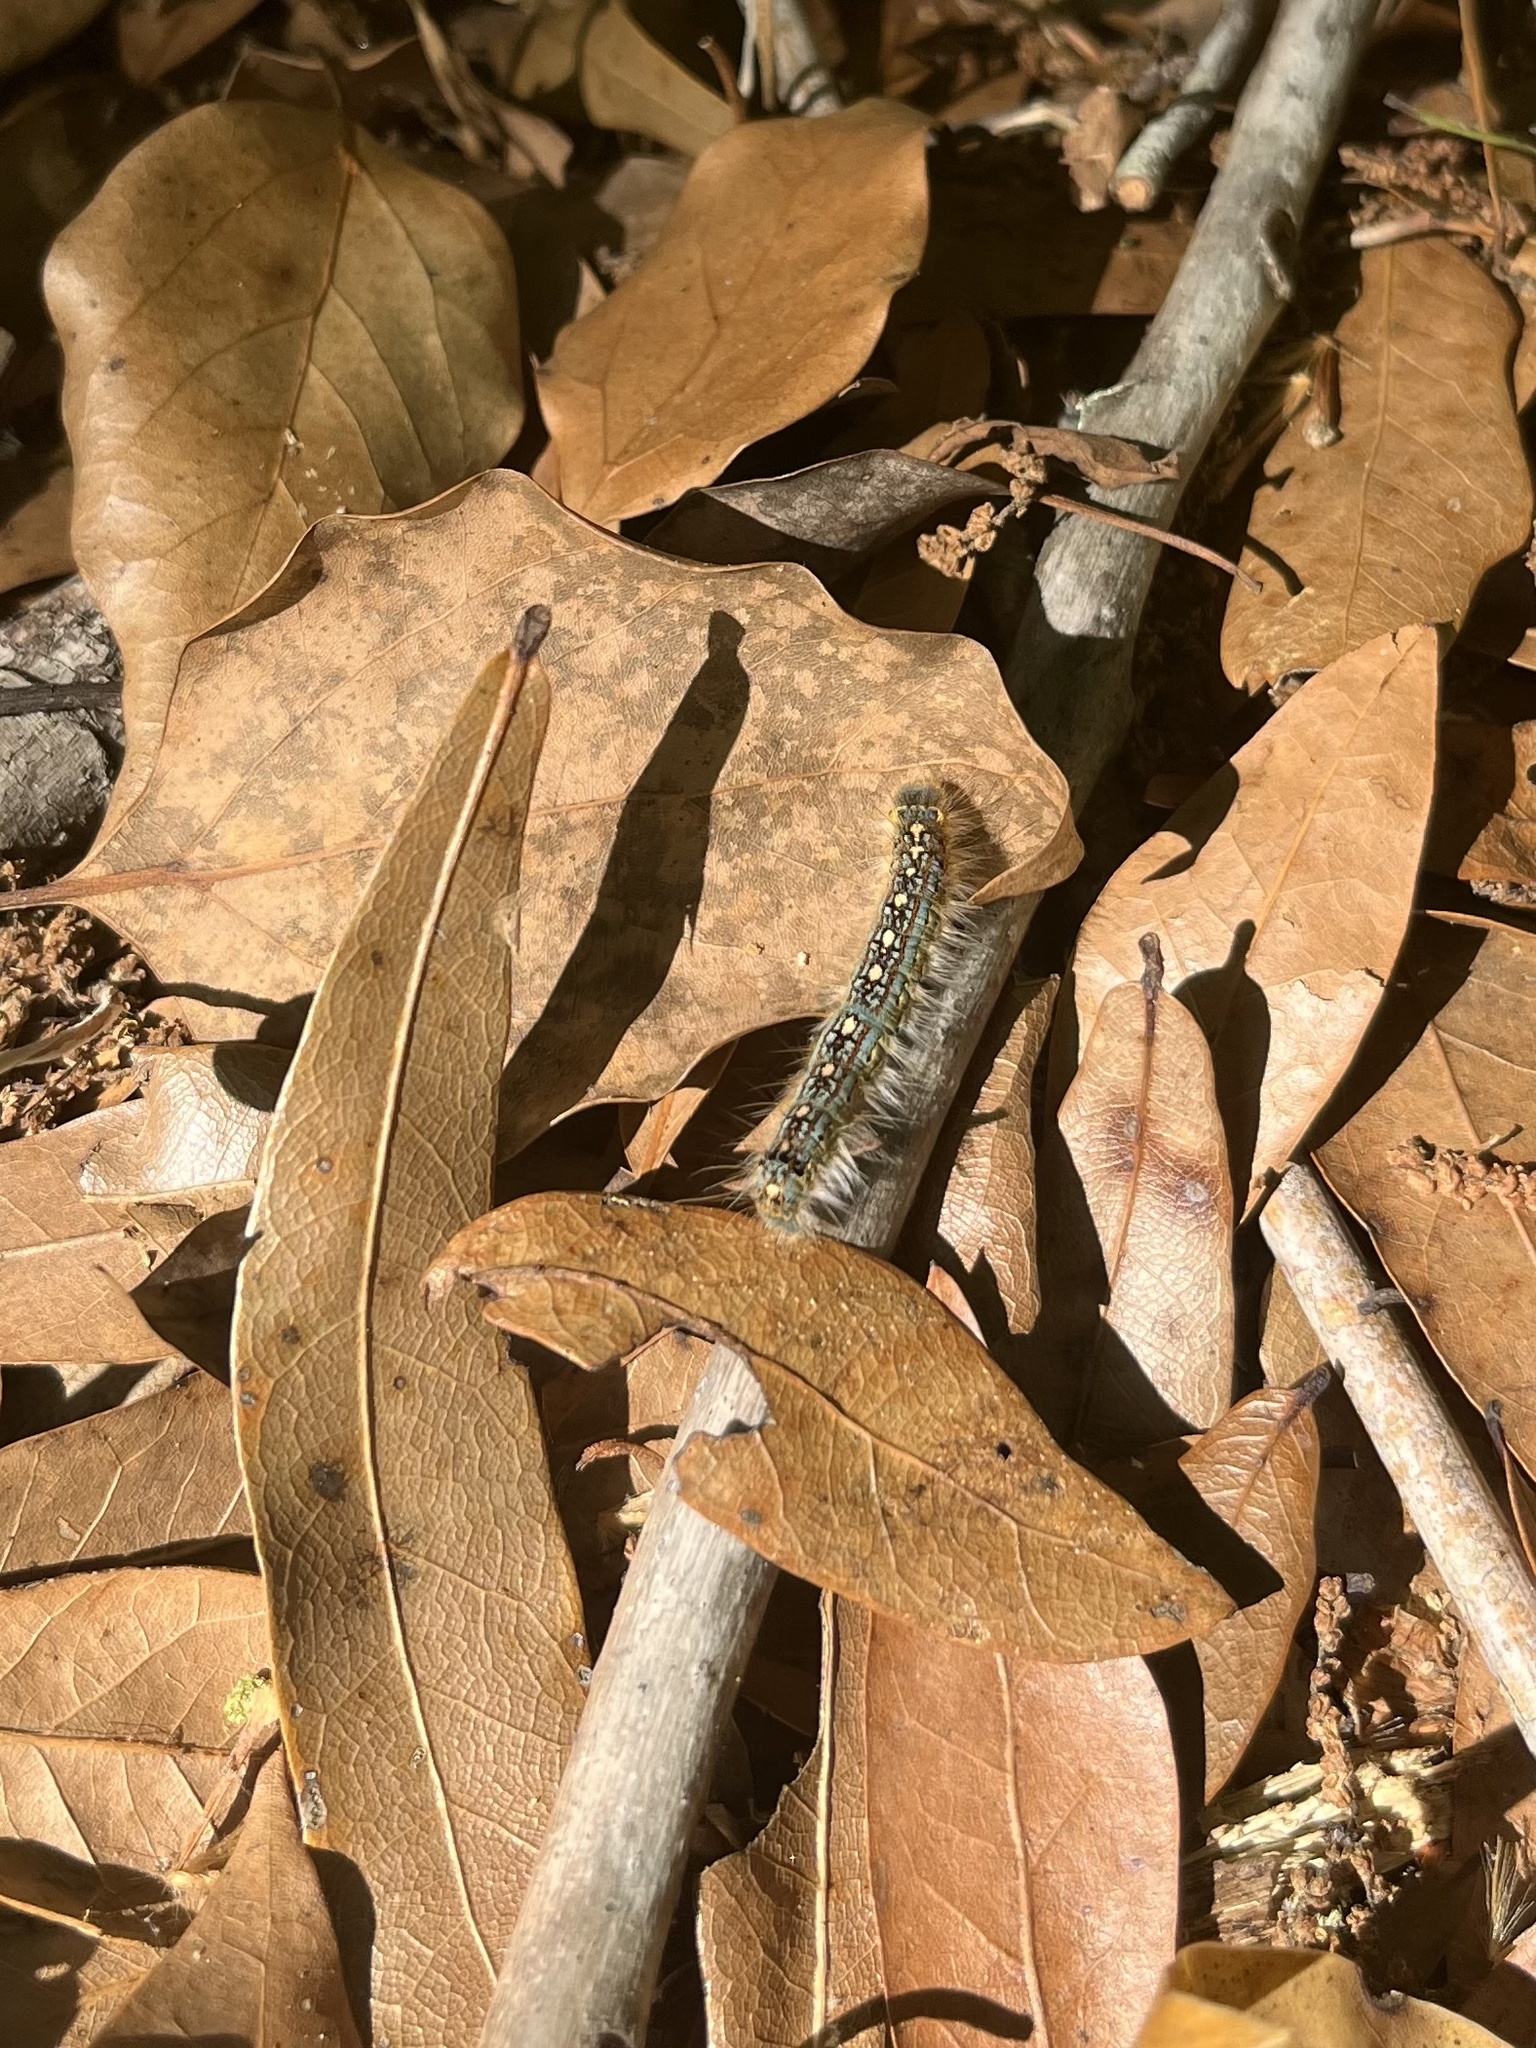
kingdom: Animalia
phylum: Arthropoda
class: Insecta
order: Lepidoptera
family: Lasiocampidae
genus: Malacosoma
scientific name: Malacosoma disstria
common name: Forest tent caterpillar
